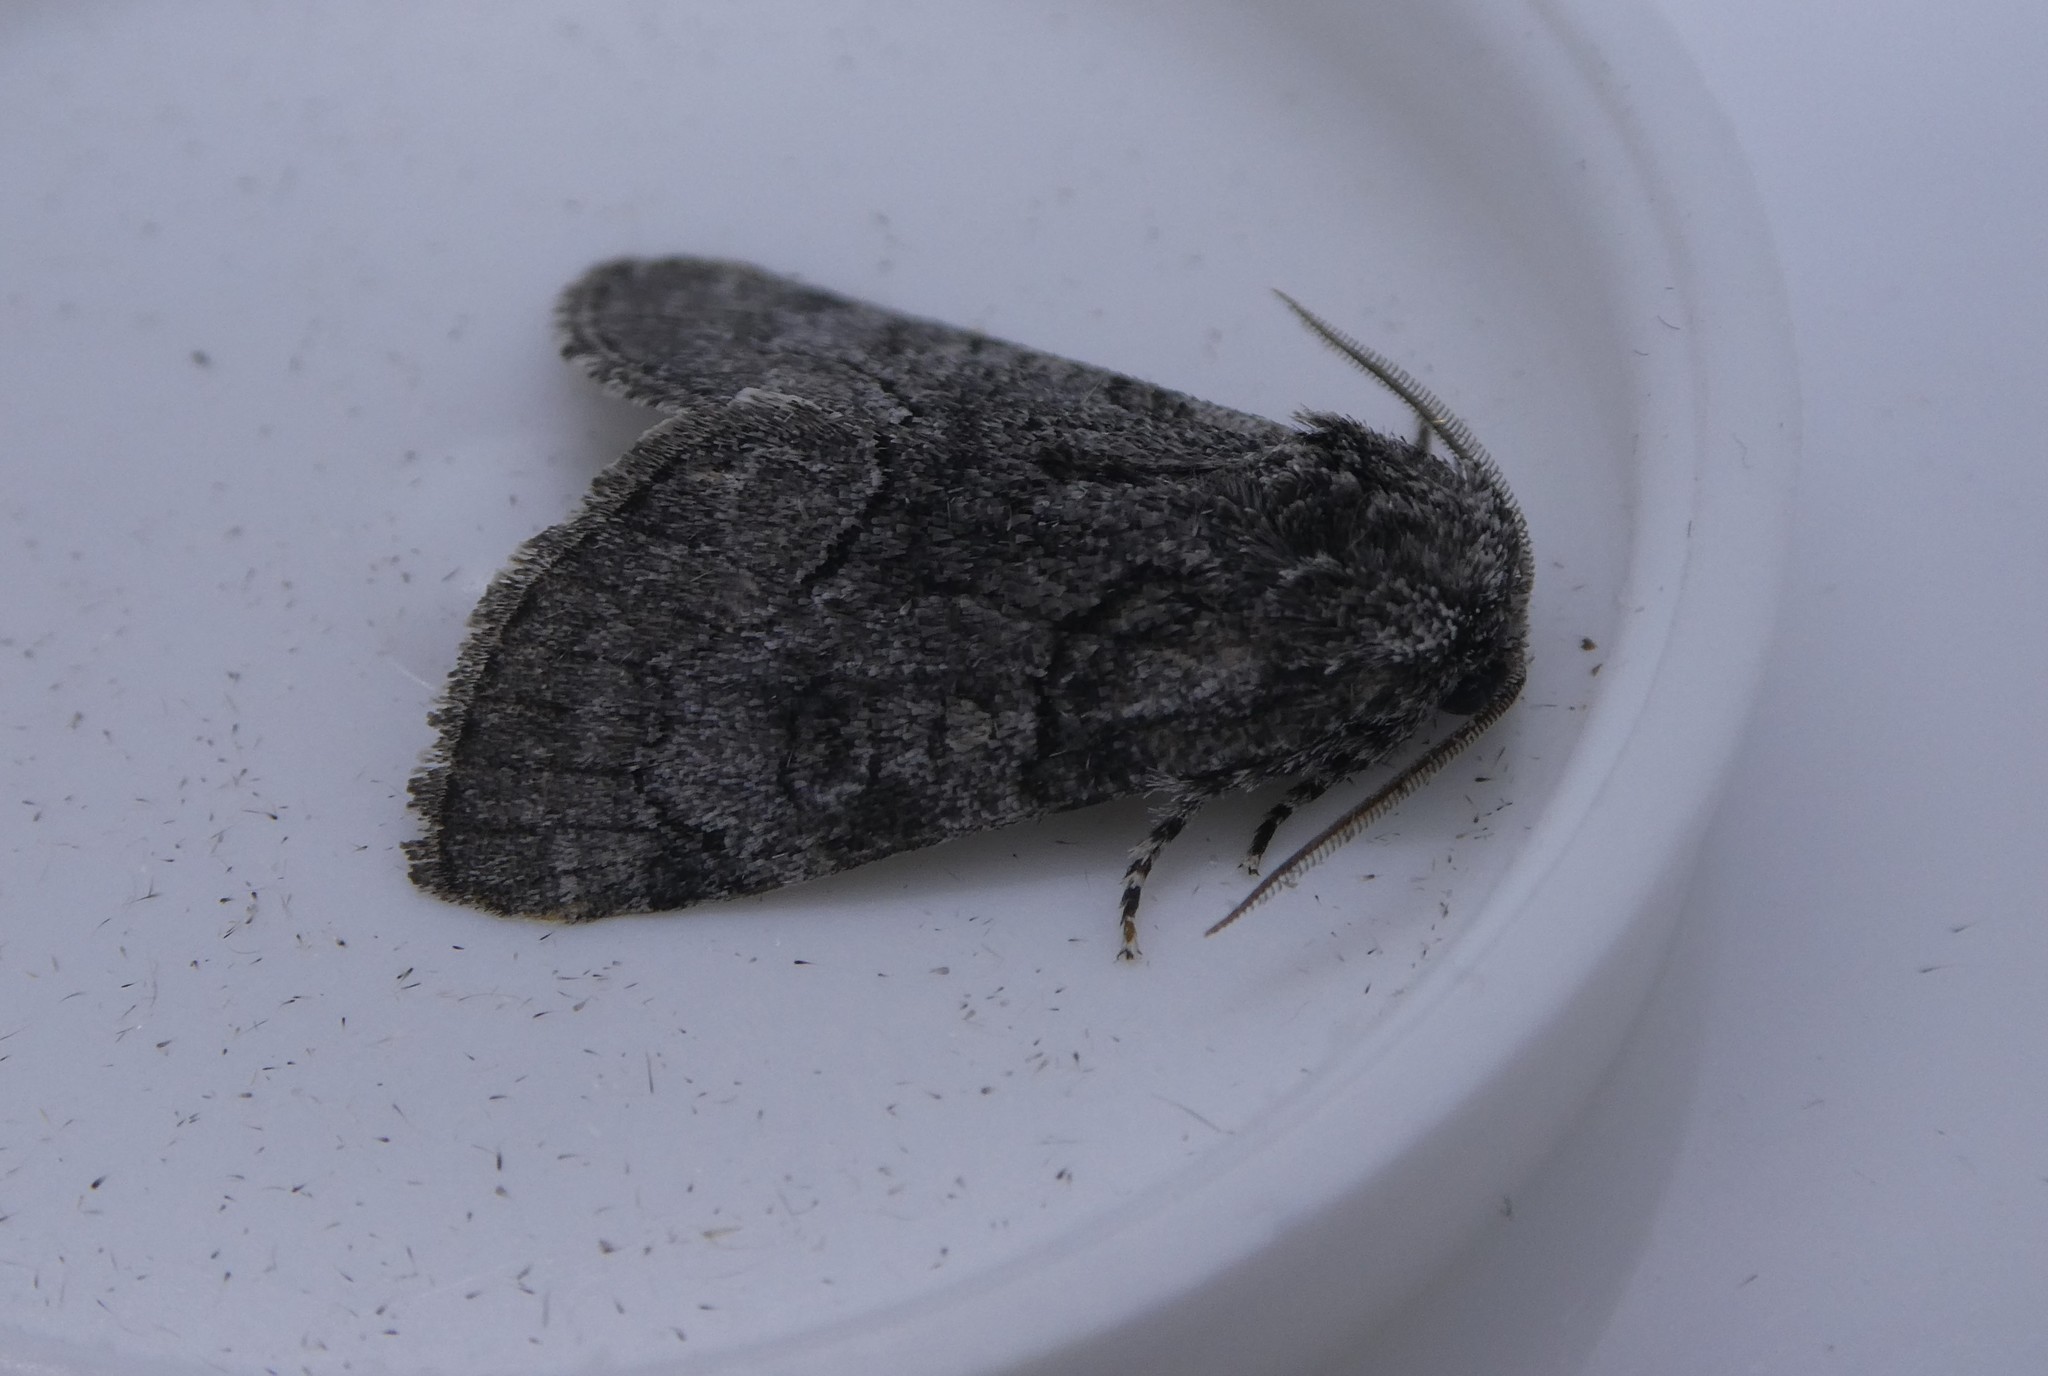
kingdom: Animalia
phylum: Arthropoda
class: Insecta
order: Lepidoptera
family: Noctuidae
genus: Raphia
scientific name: Raphia frater
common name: Brother
